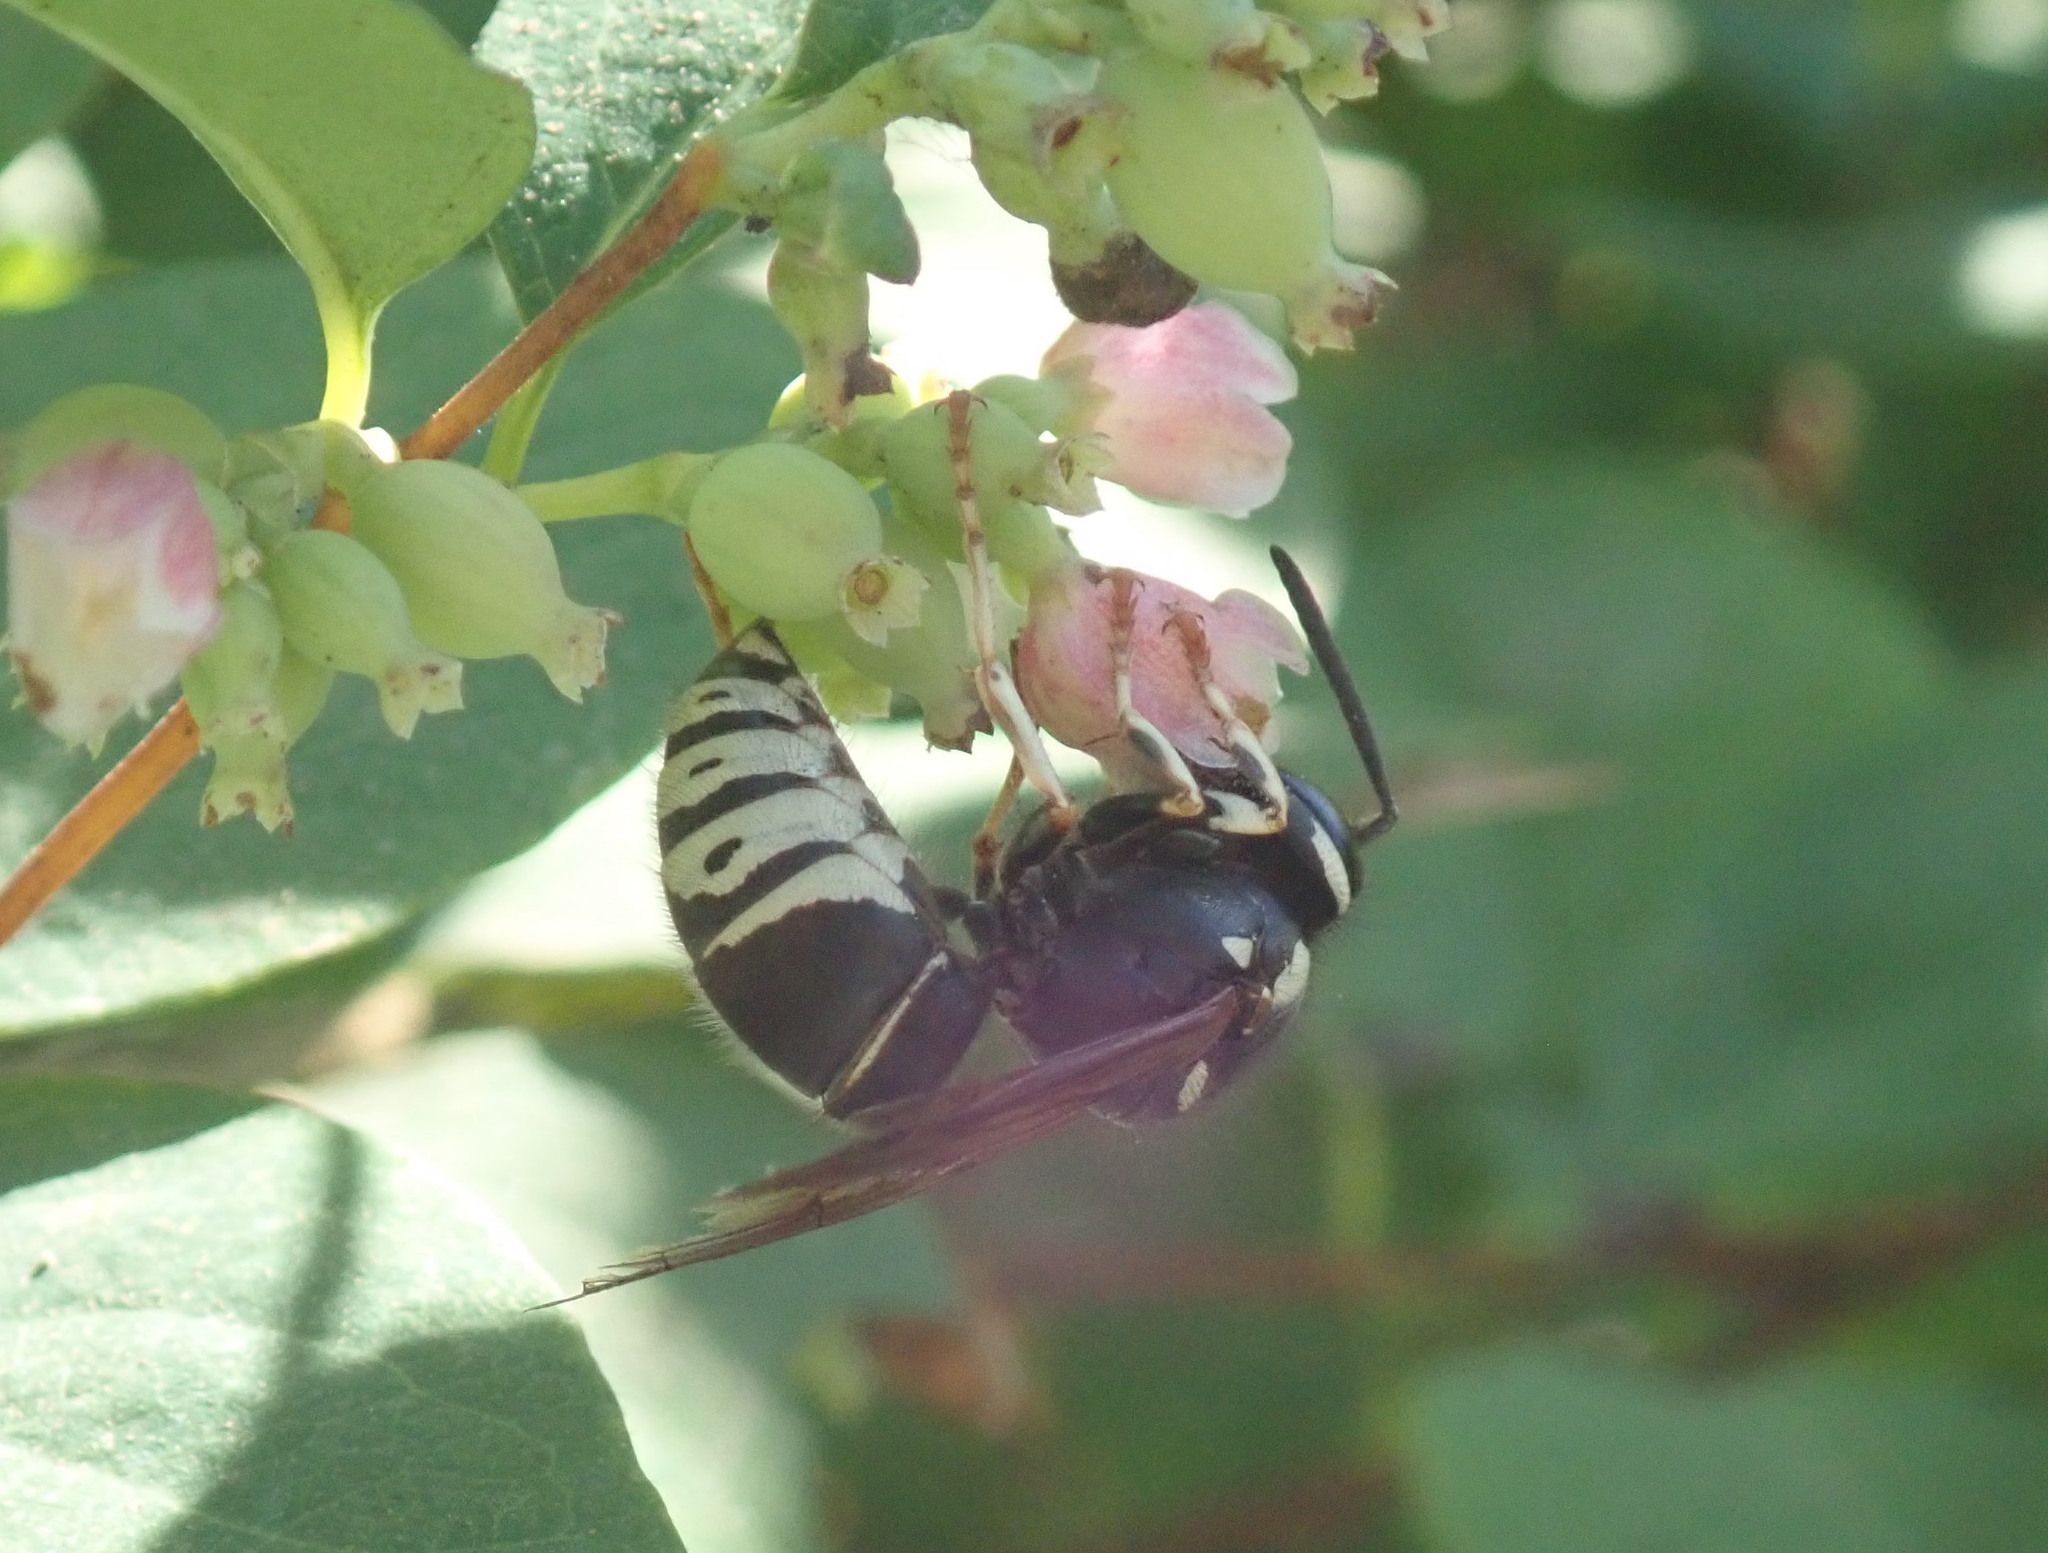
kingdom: Animalia
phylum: Arthropoda
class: Insecta
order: Hymenoptera
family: Vespidae
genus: Vespula
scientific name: Vespula consobrina
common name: Blackjacket
